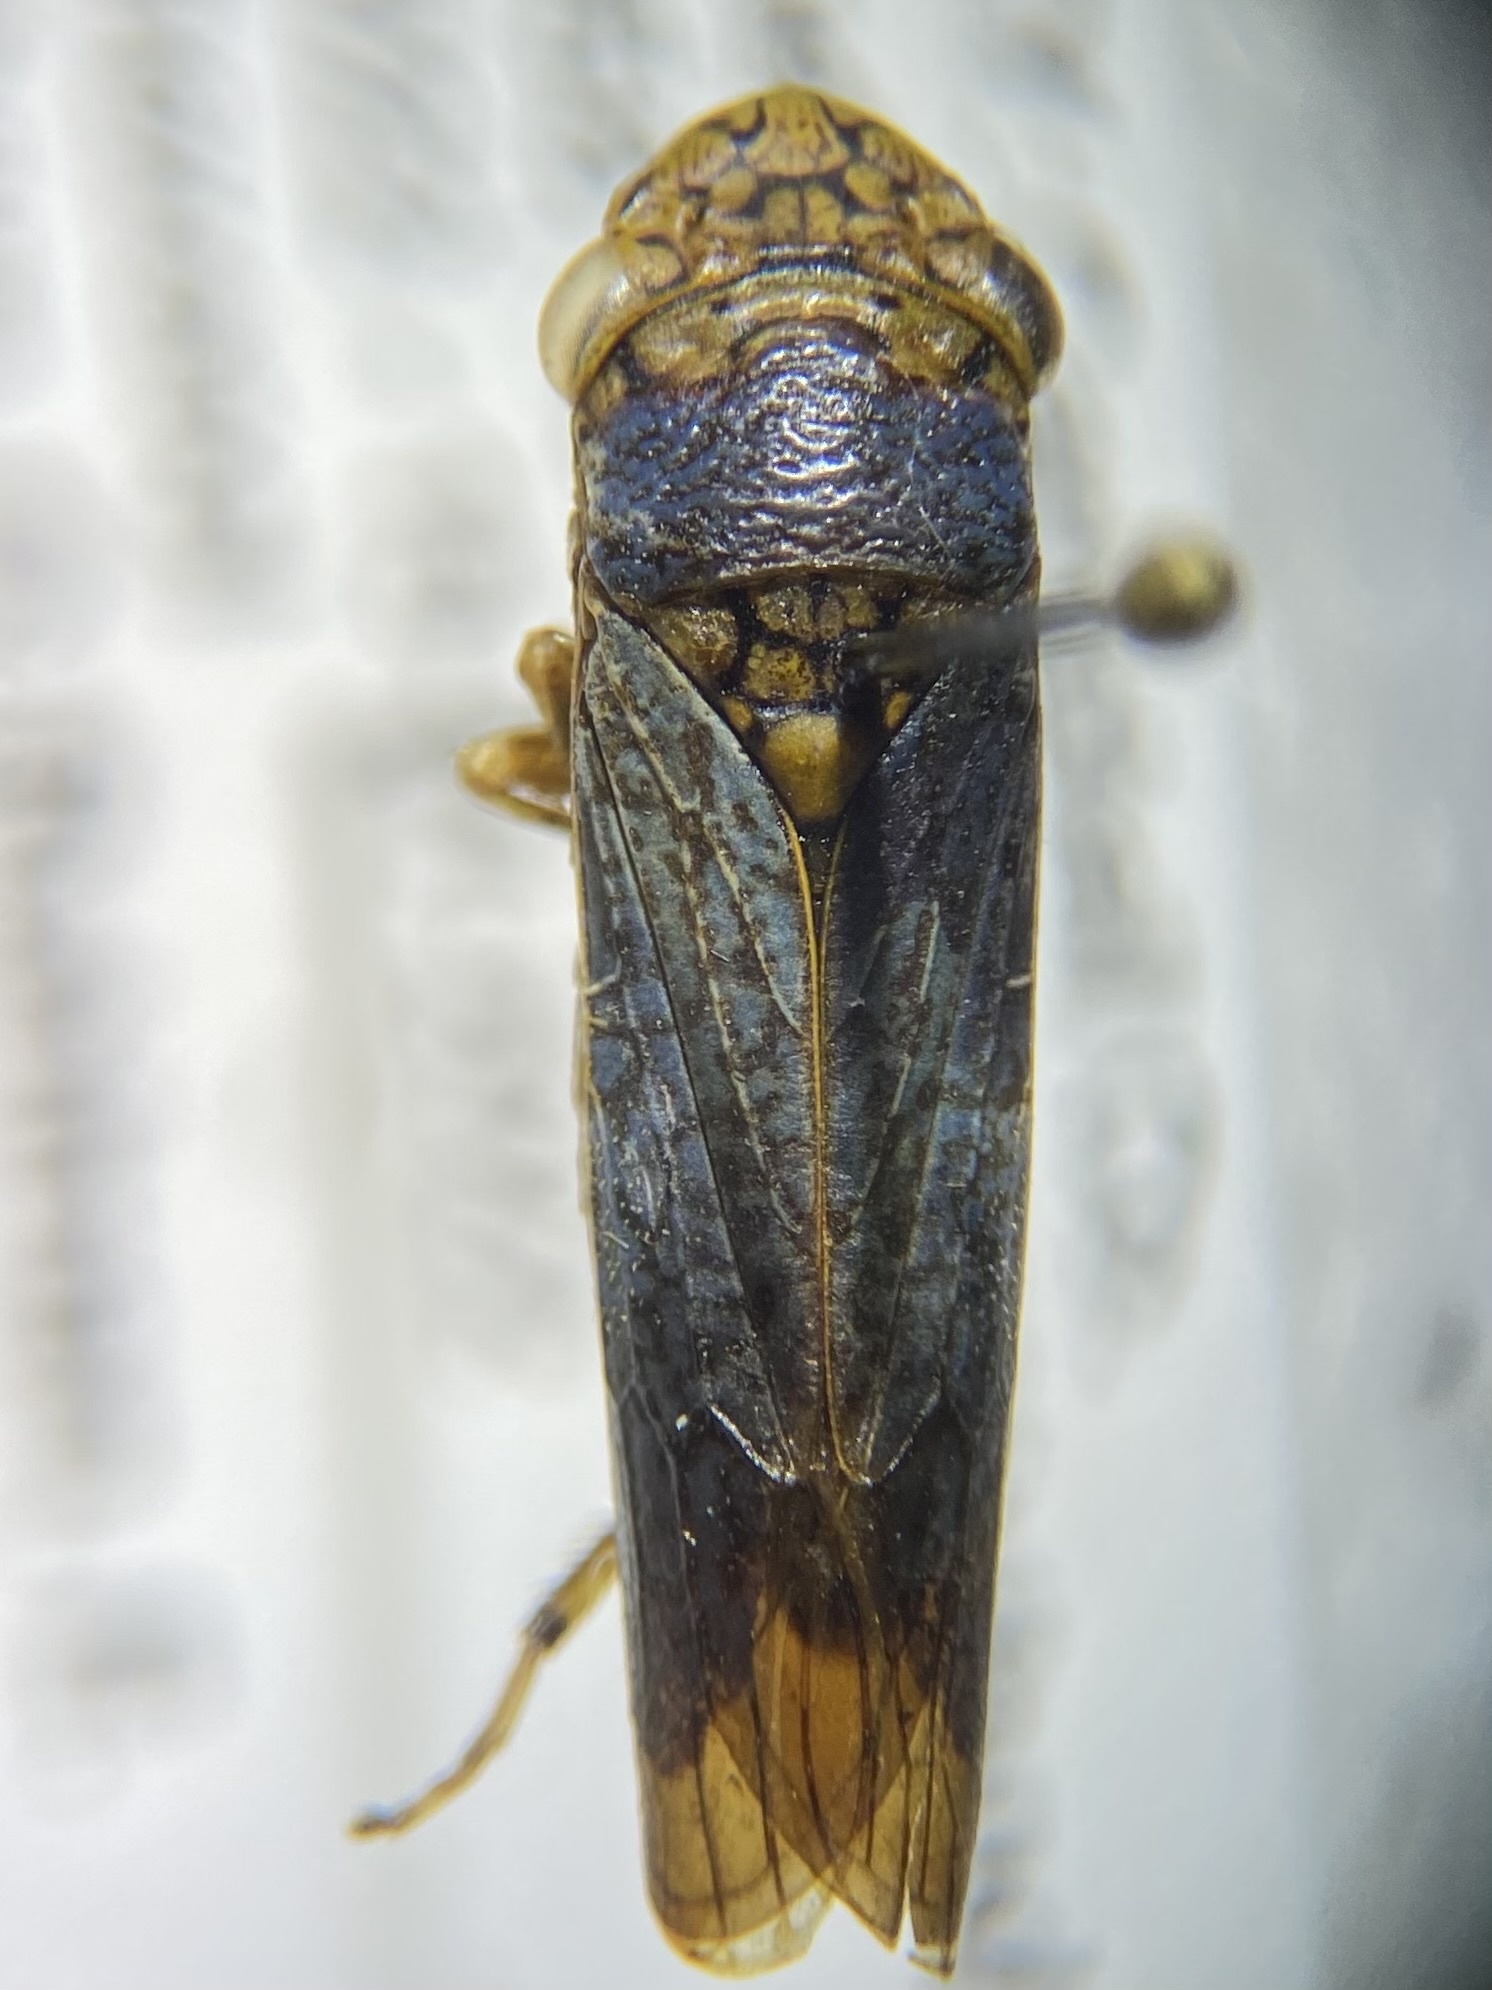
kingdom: Animalia
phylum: Arthropoda
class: Insecta
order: Hemiptera
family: Cicadellidae
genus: Oncometopia
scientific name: Oncometopia orbona
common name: Broad-headed sharpshooter
